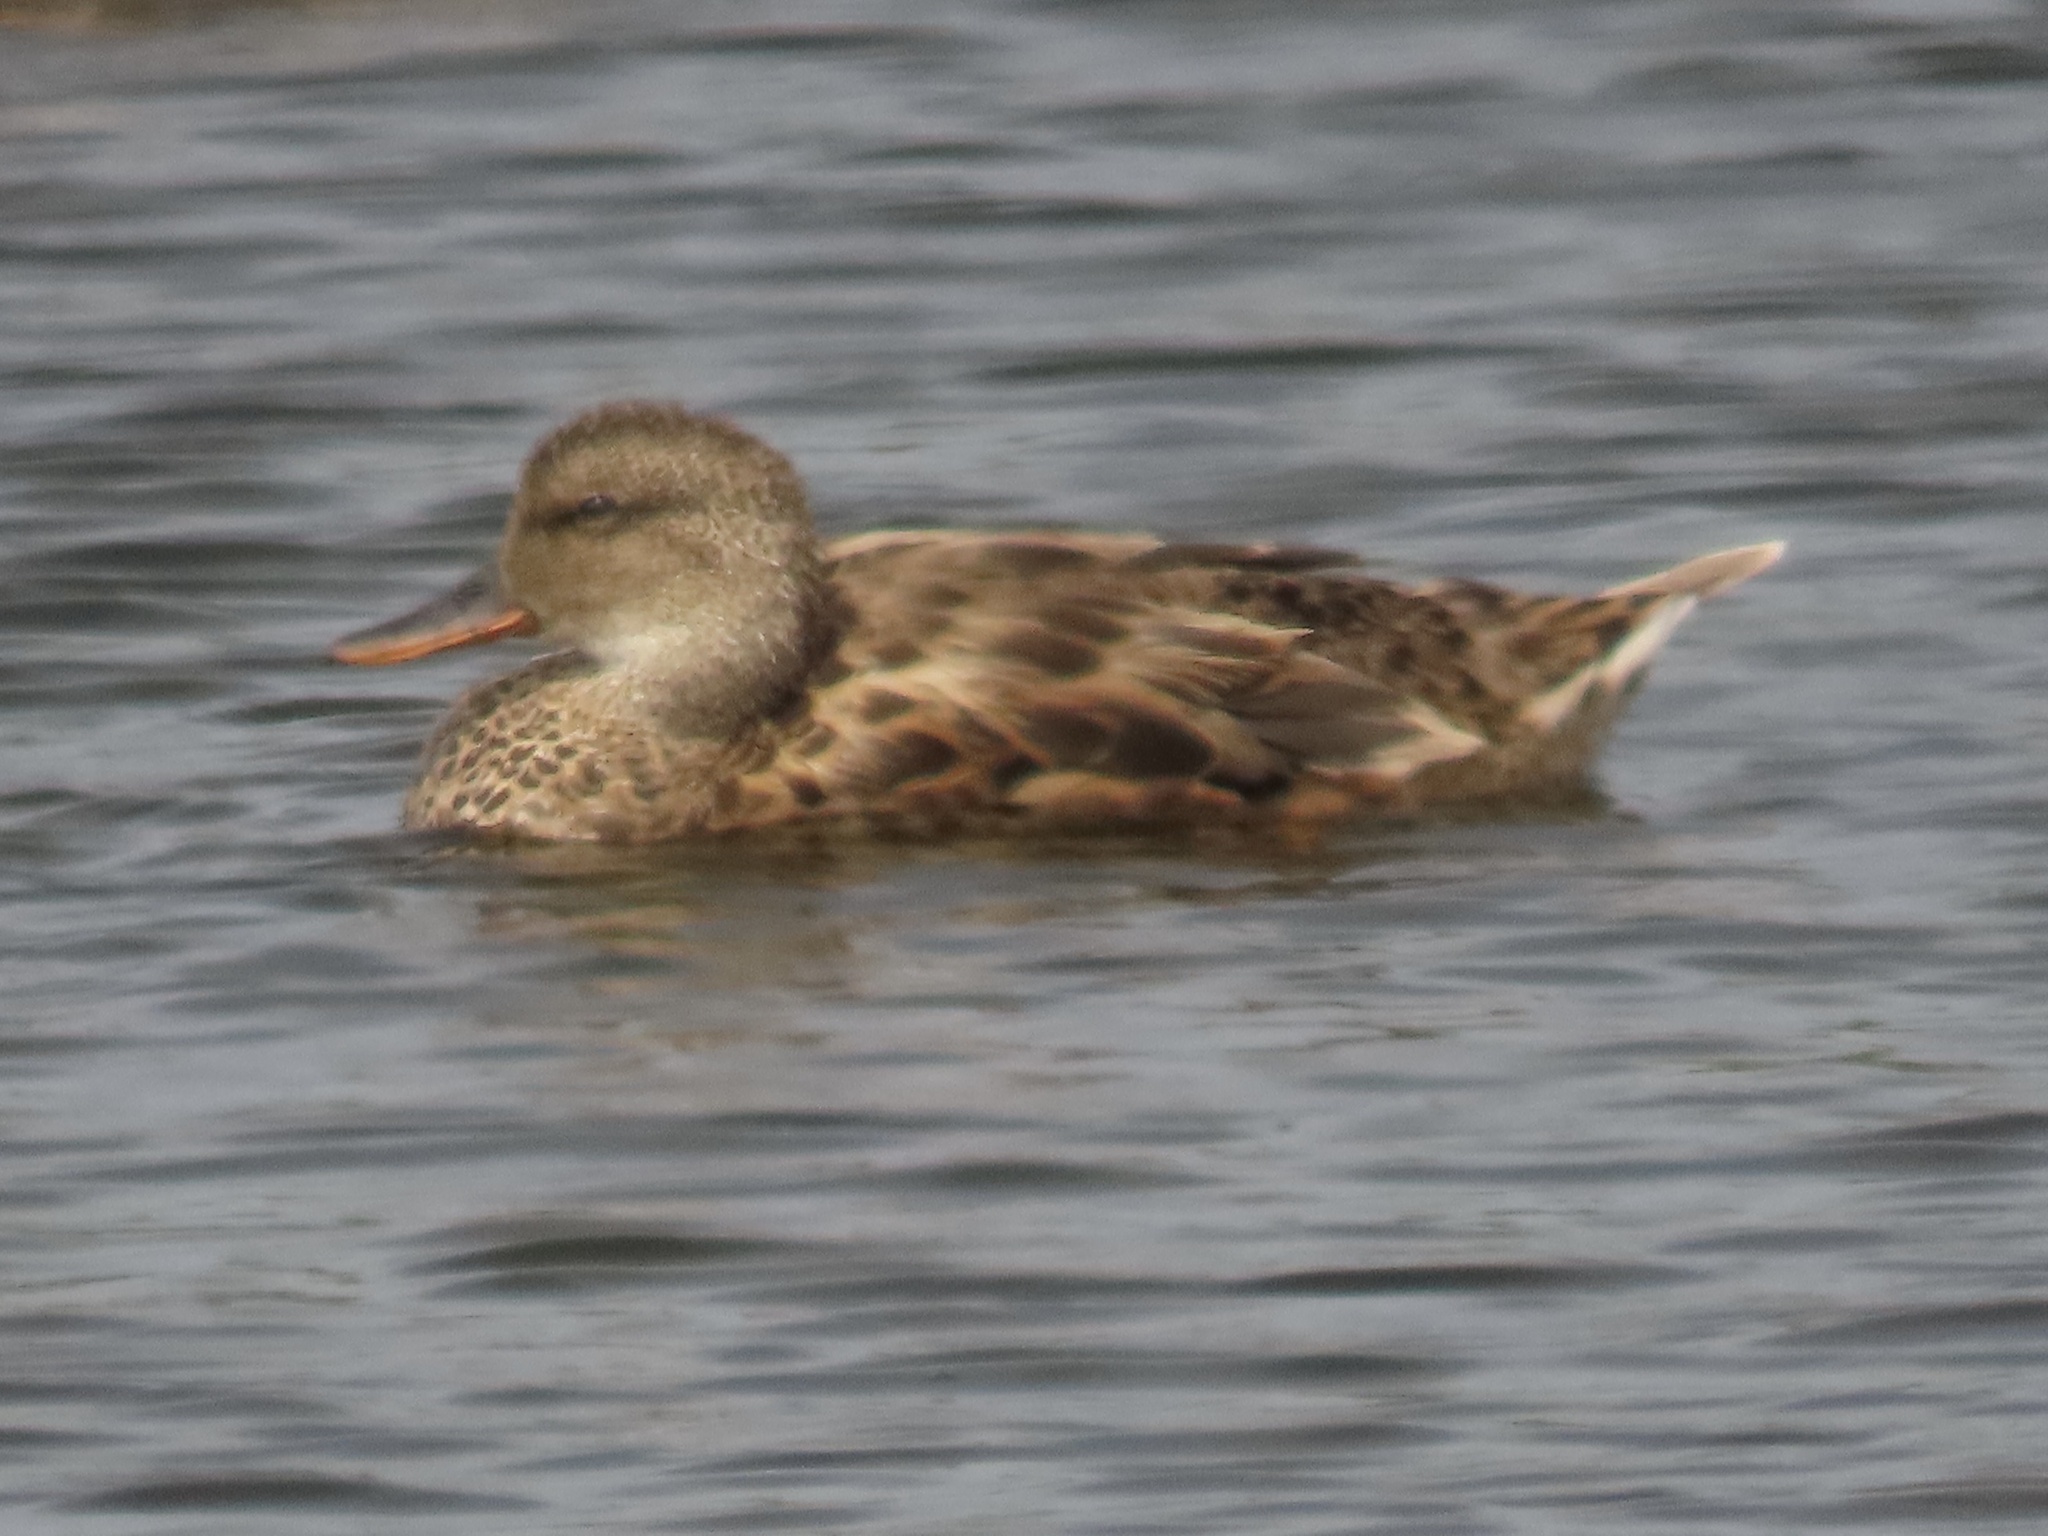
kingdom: Animalia
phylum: Chordata
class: Aves
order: Anseriformes
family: Anatidae
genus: Mareca
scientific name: Mareca strepera
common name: Gadwall
